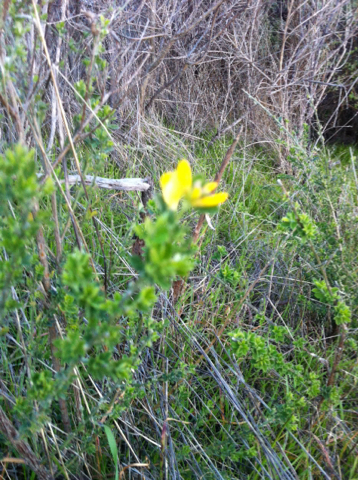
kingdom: Plantae
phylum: Tracheophyta
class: Magnoliopsida
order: Fabales
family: Fabaceae
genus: Genista
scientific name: Genista monspessulana
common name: Montpellier broom
